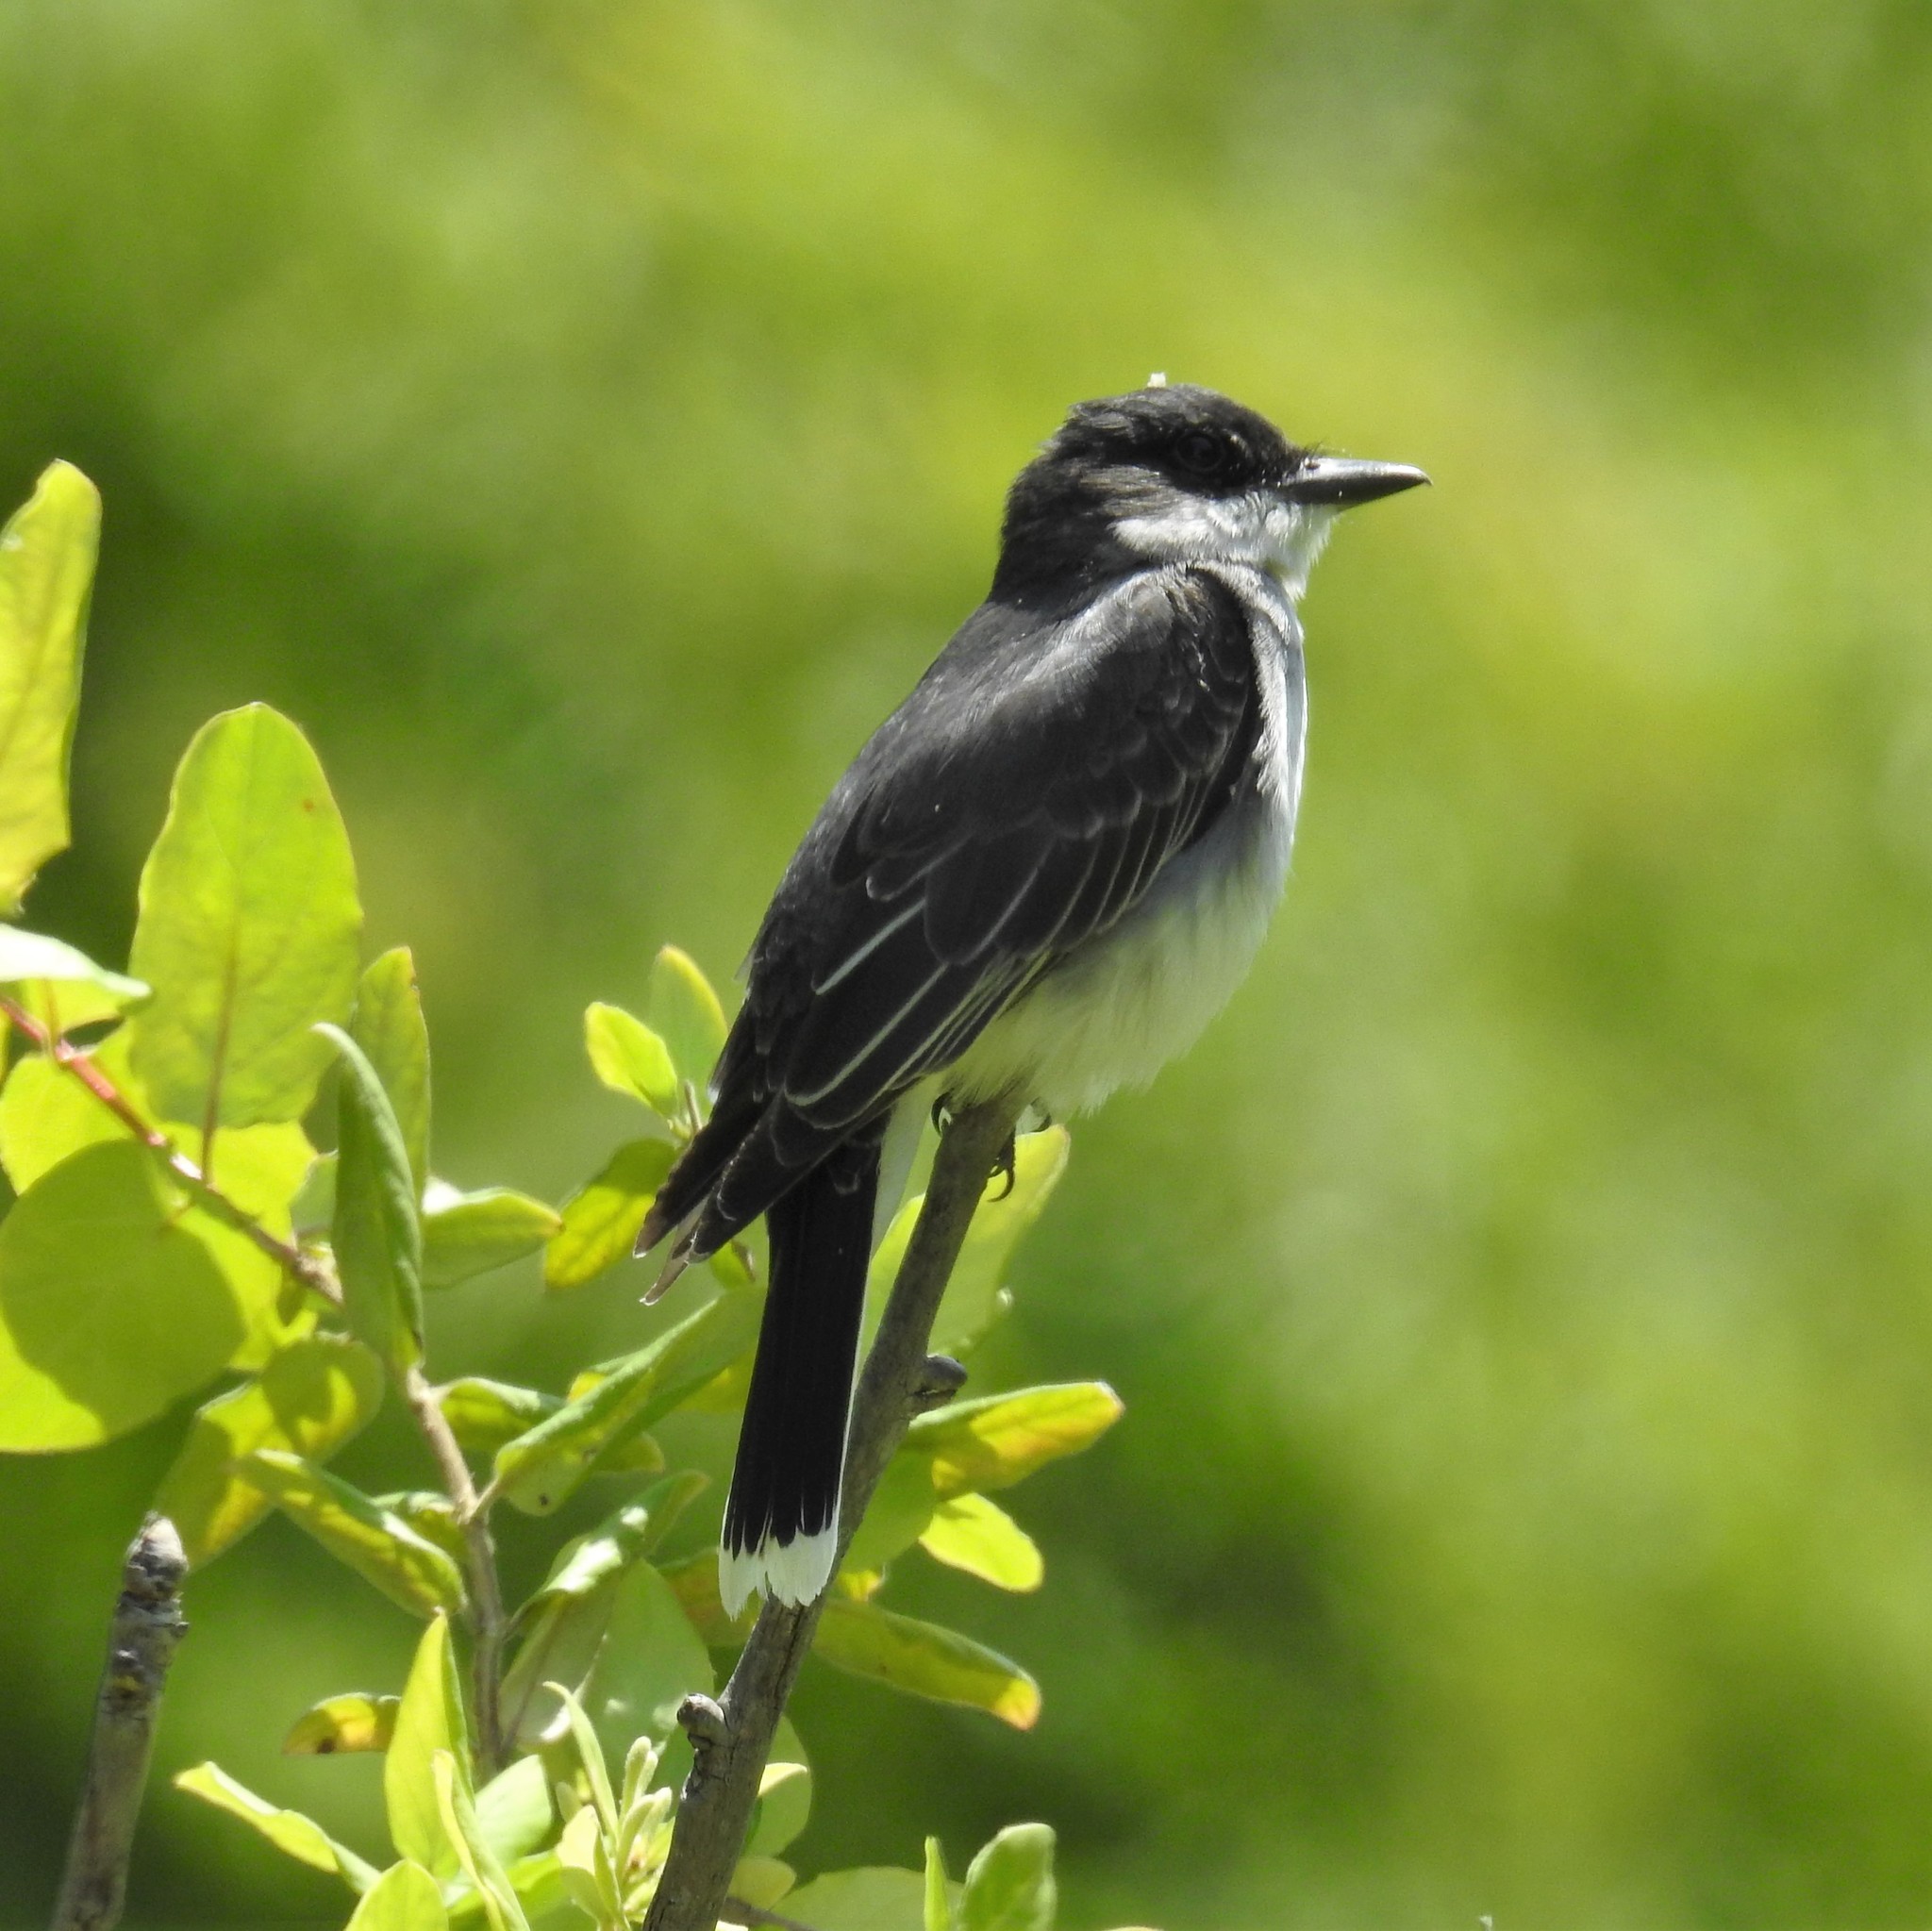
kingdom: Animalia
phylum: Chordata
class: Aves
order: Passeriformes
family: Tyrannidae
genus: Tyrannus
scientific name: Tyrannus tyrannus
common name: Eastern kingbird
